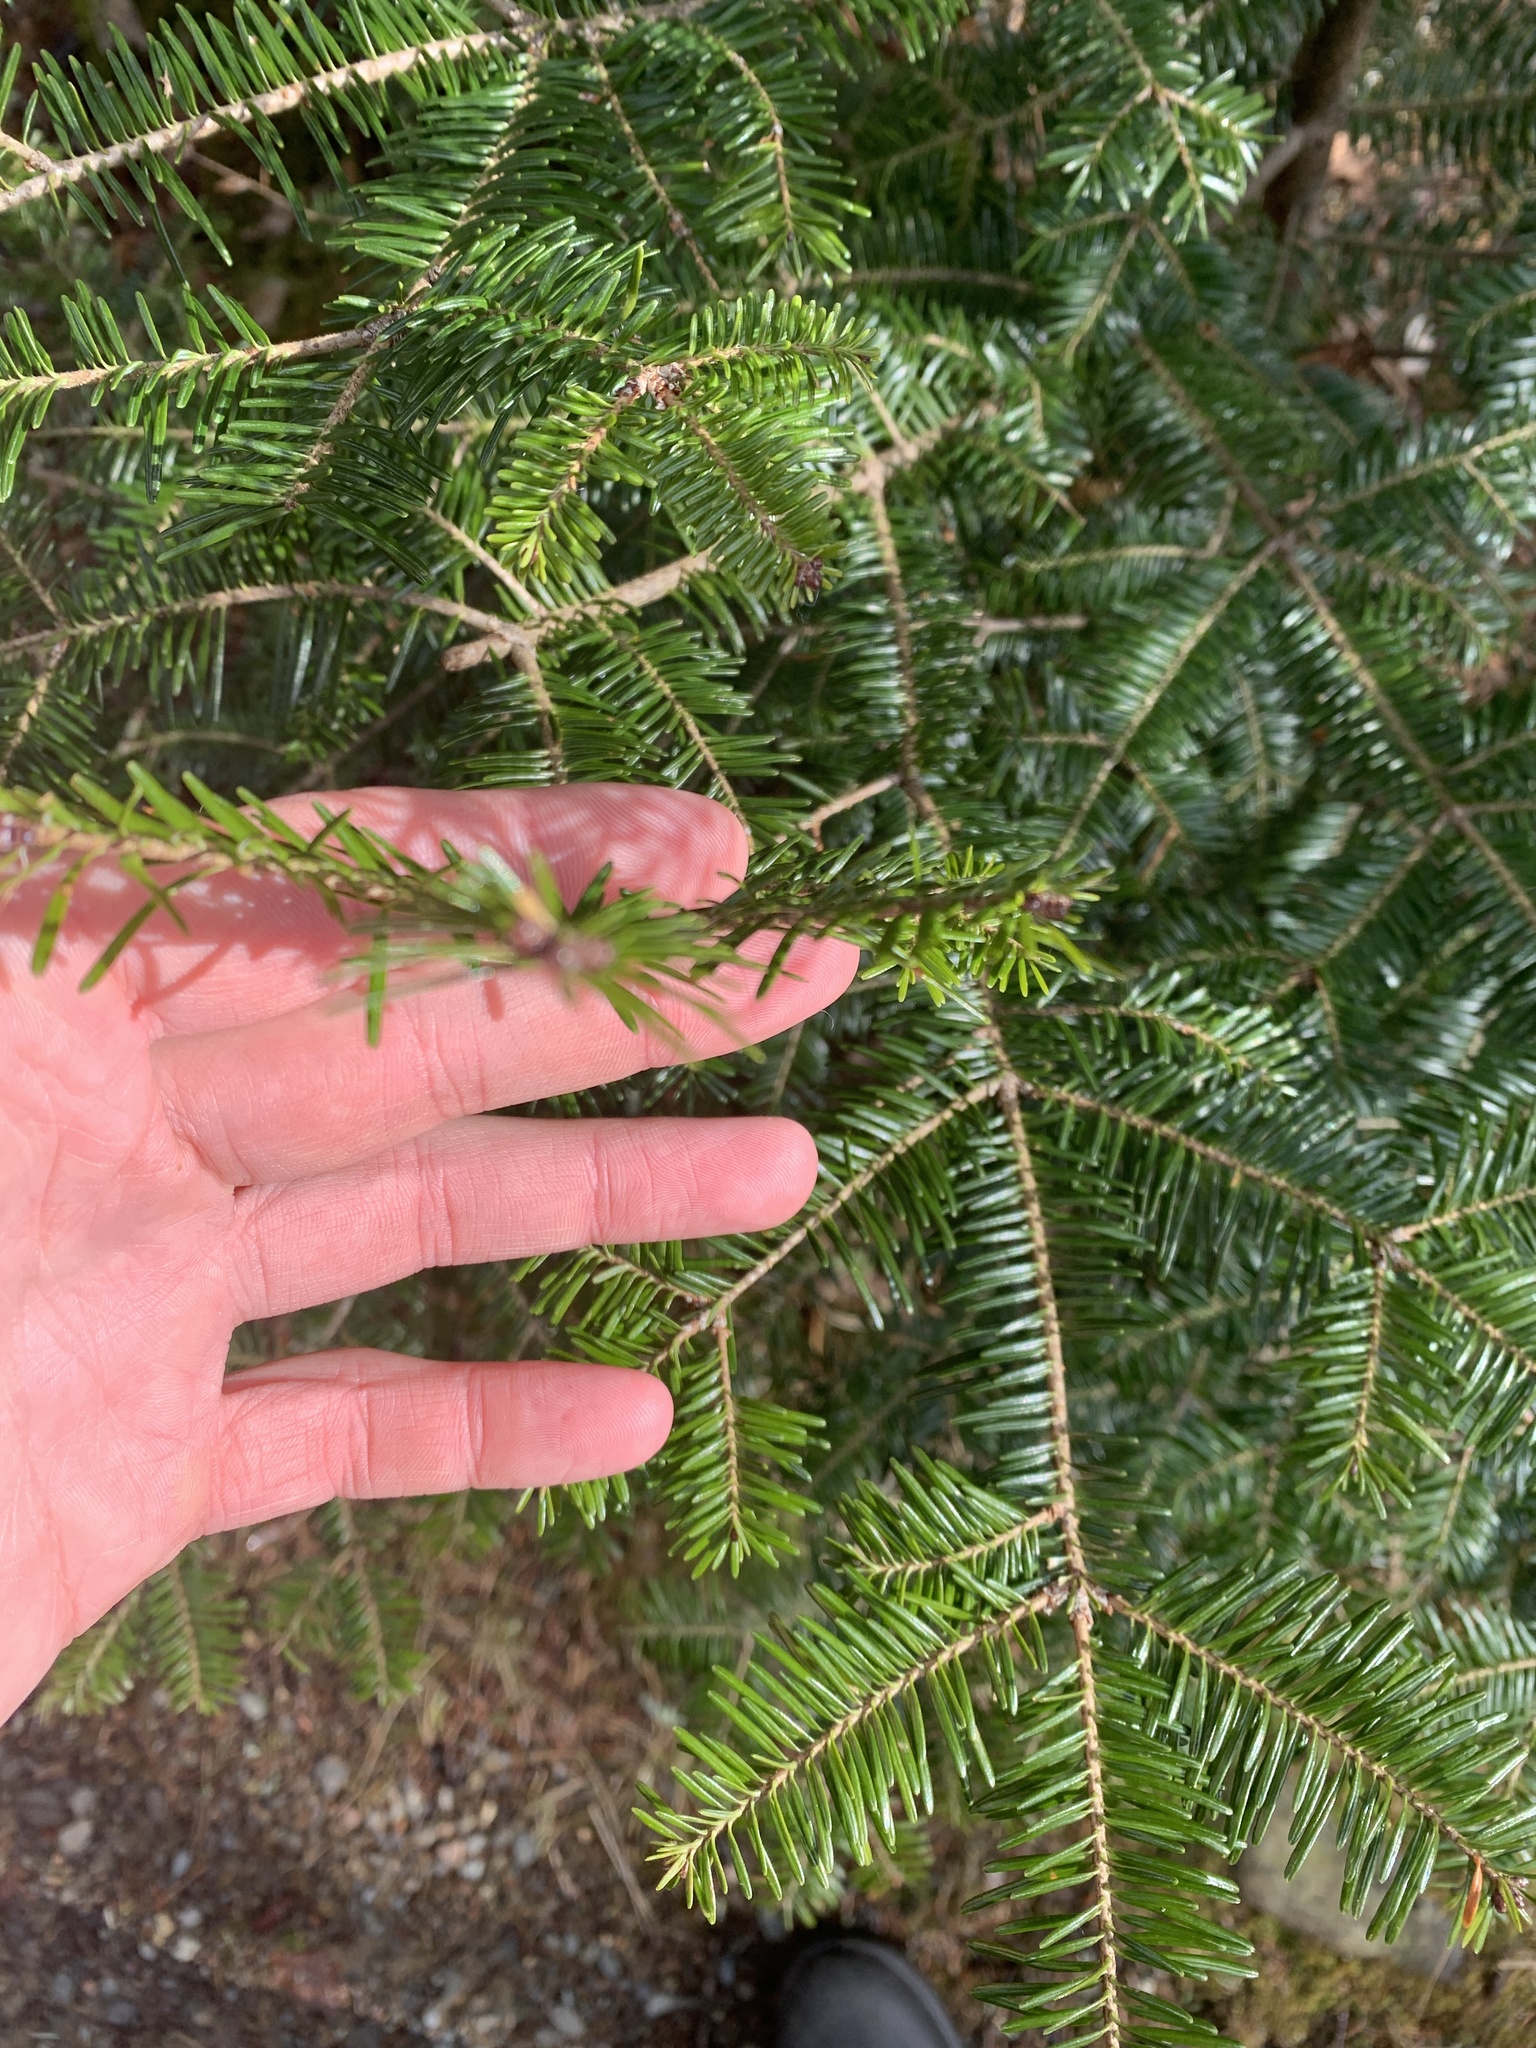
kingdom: Plantae
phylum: Tracheophyta
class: Pinopsida
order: Pinales
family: Pinaceae
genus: Abies
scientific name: Abies balsamea
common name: Balsam fir
